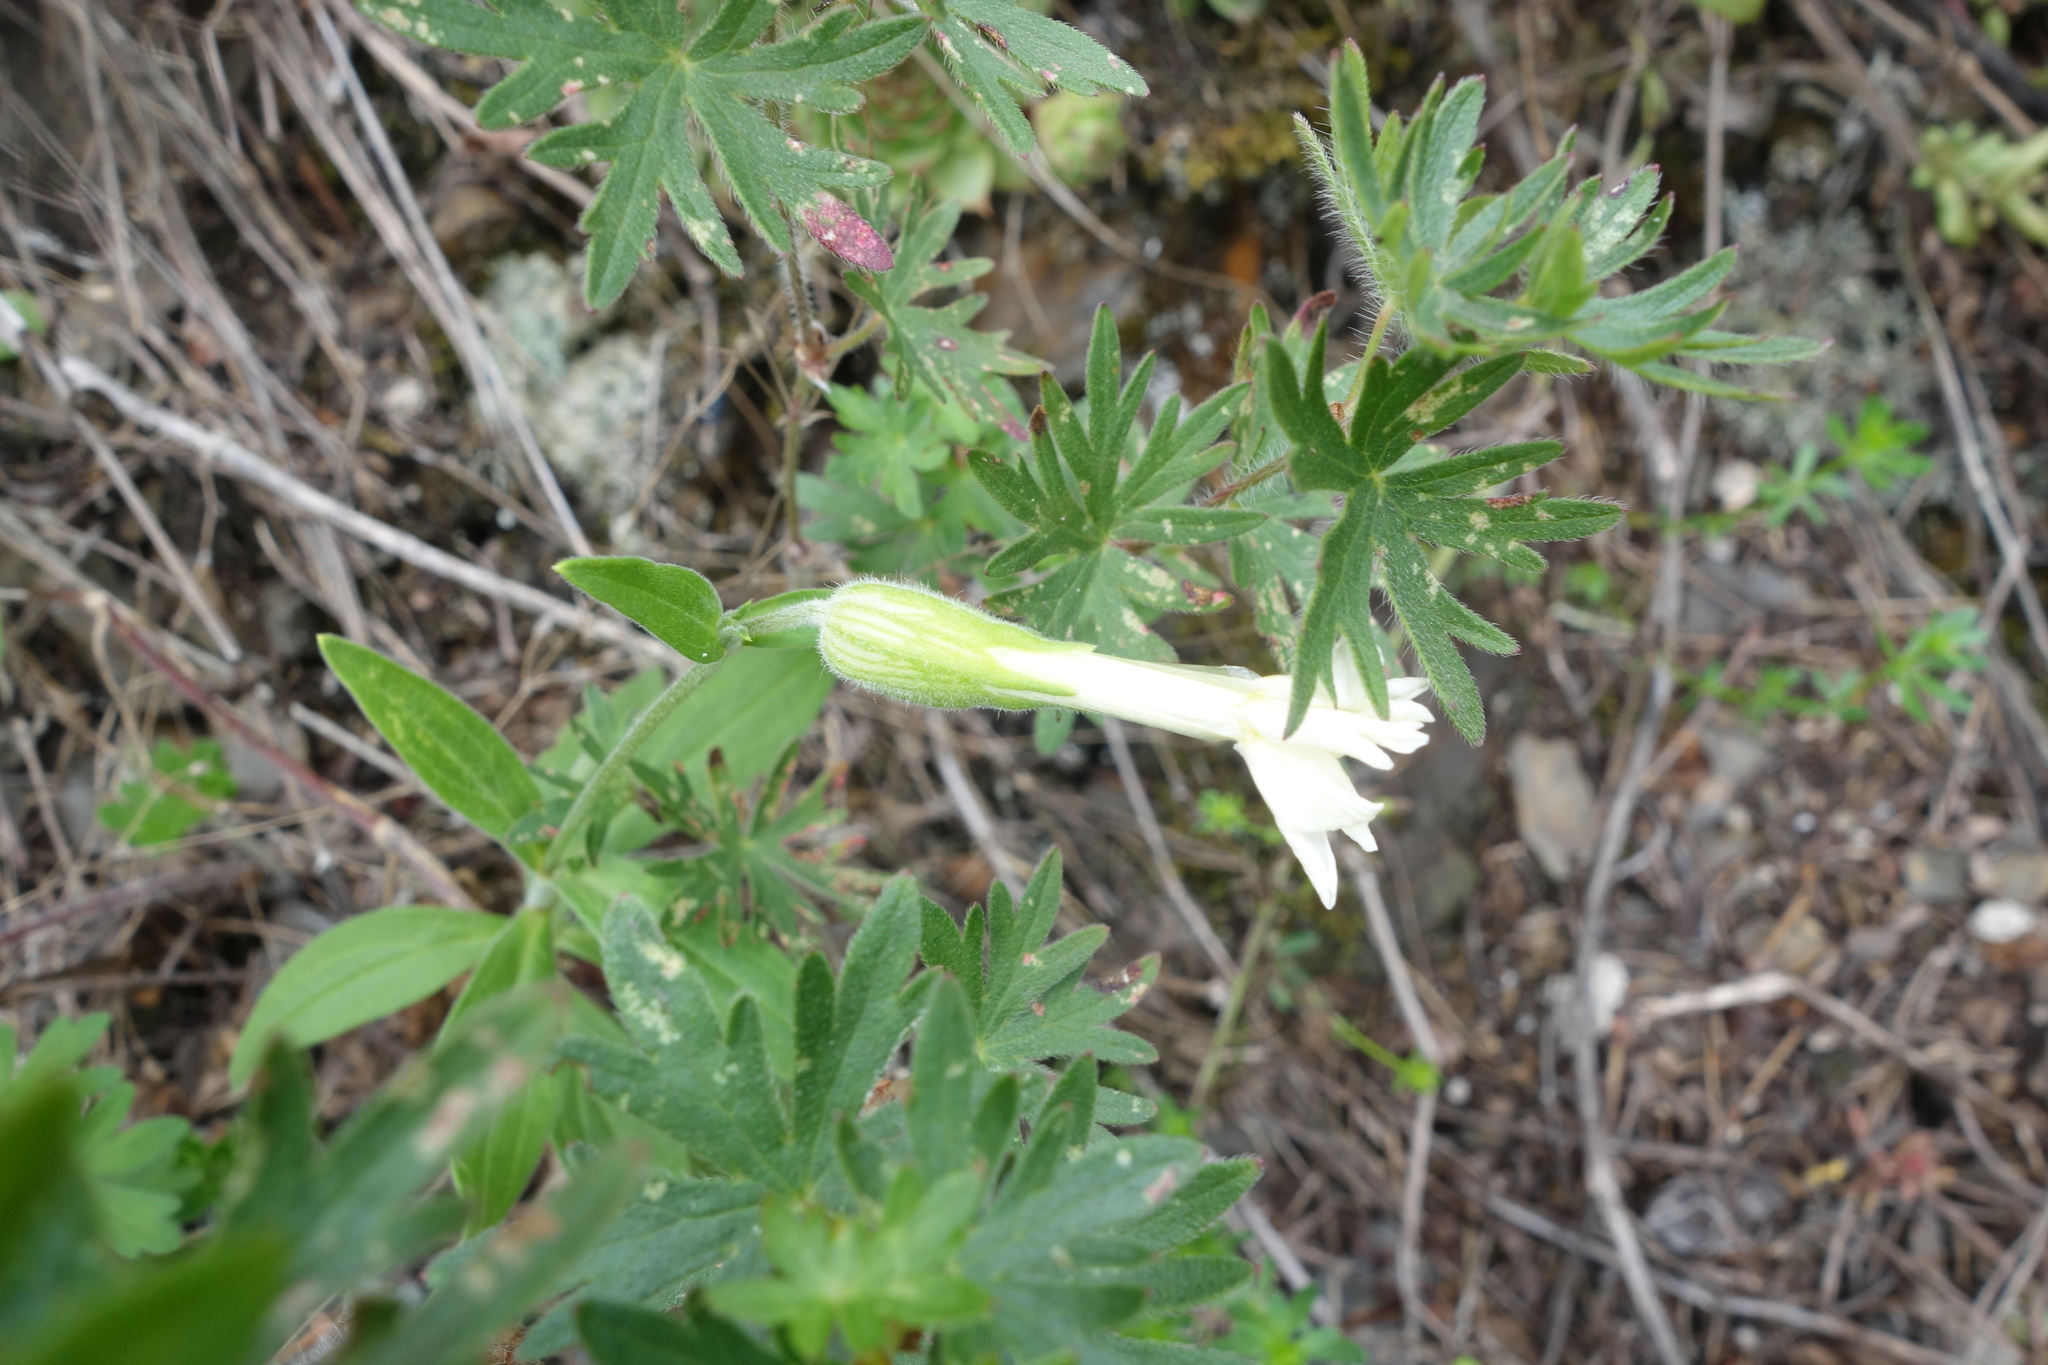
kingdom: Plantae
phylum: Tracheophyta
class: Magnoliopsida
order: Caryophyllales
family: Caryophyllaceae
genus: Silene
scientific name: Silene latifolia
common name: White campion
